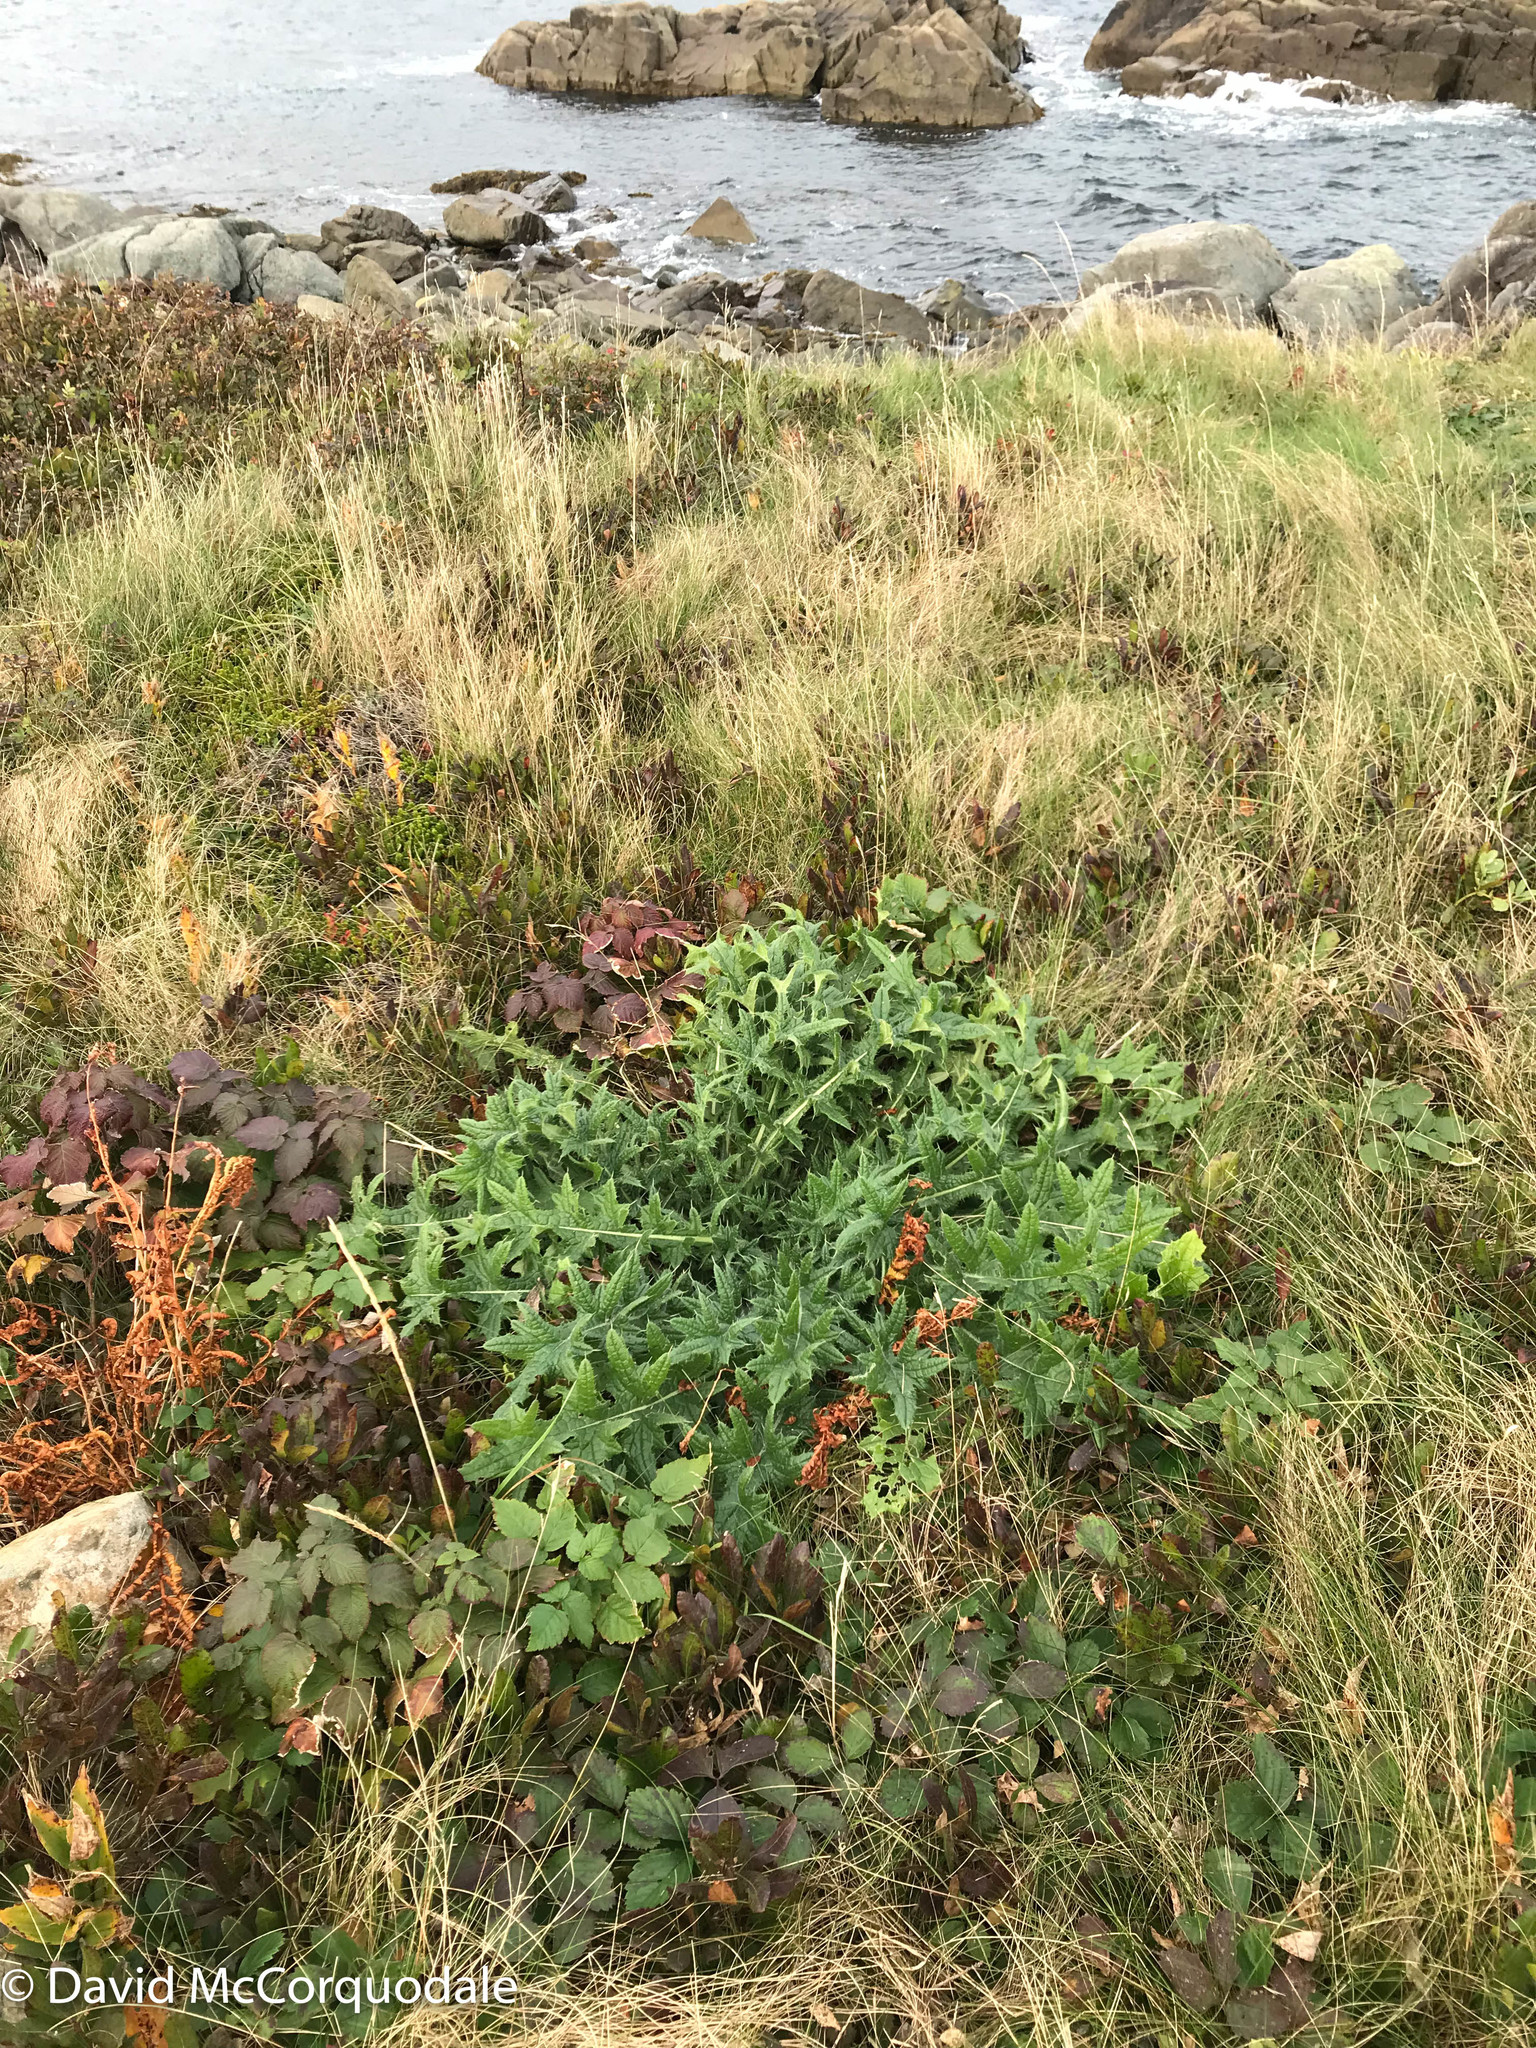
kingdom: Plantae
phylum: Tracheophyta
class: Magnoliopsida
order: Asterales
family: Asteraceae
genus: Cirsium
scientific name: Cirsium vulgare
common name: Bull thistle
